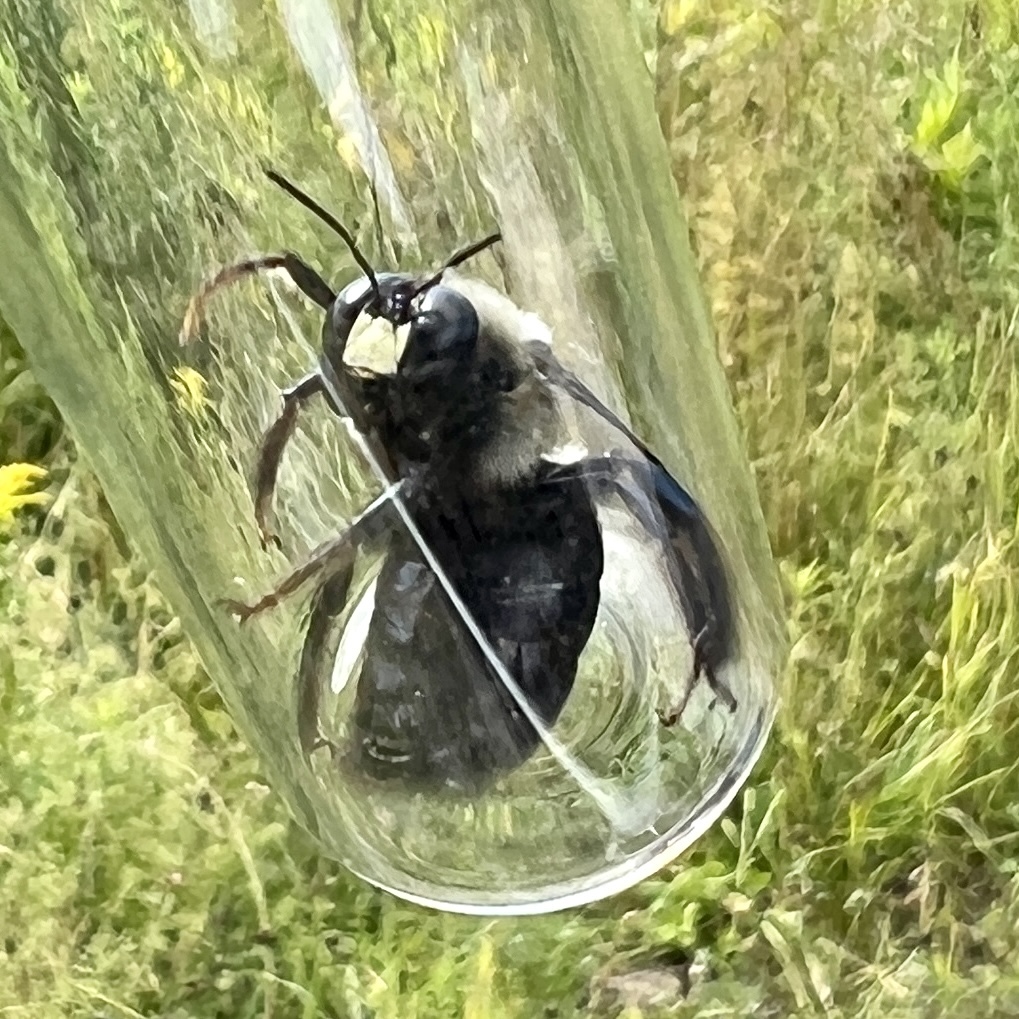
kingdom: Animalia
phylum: Arthropoda
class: Insecta
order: Hymenoptera
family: Apidae
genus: Xylocopa
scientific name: Xylocopa virginica
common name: Carpenter bee
